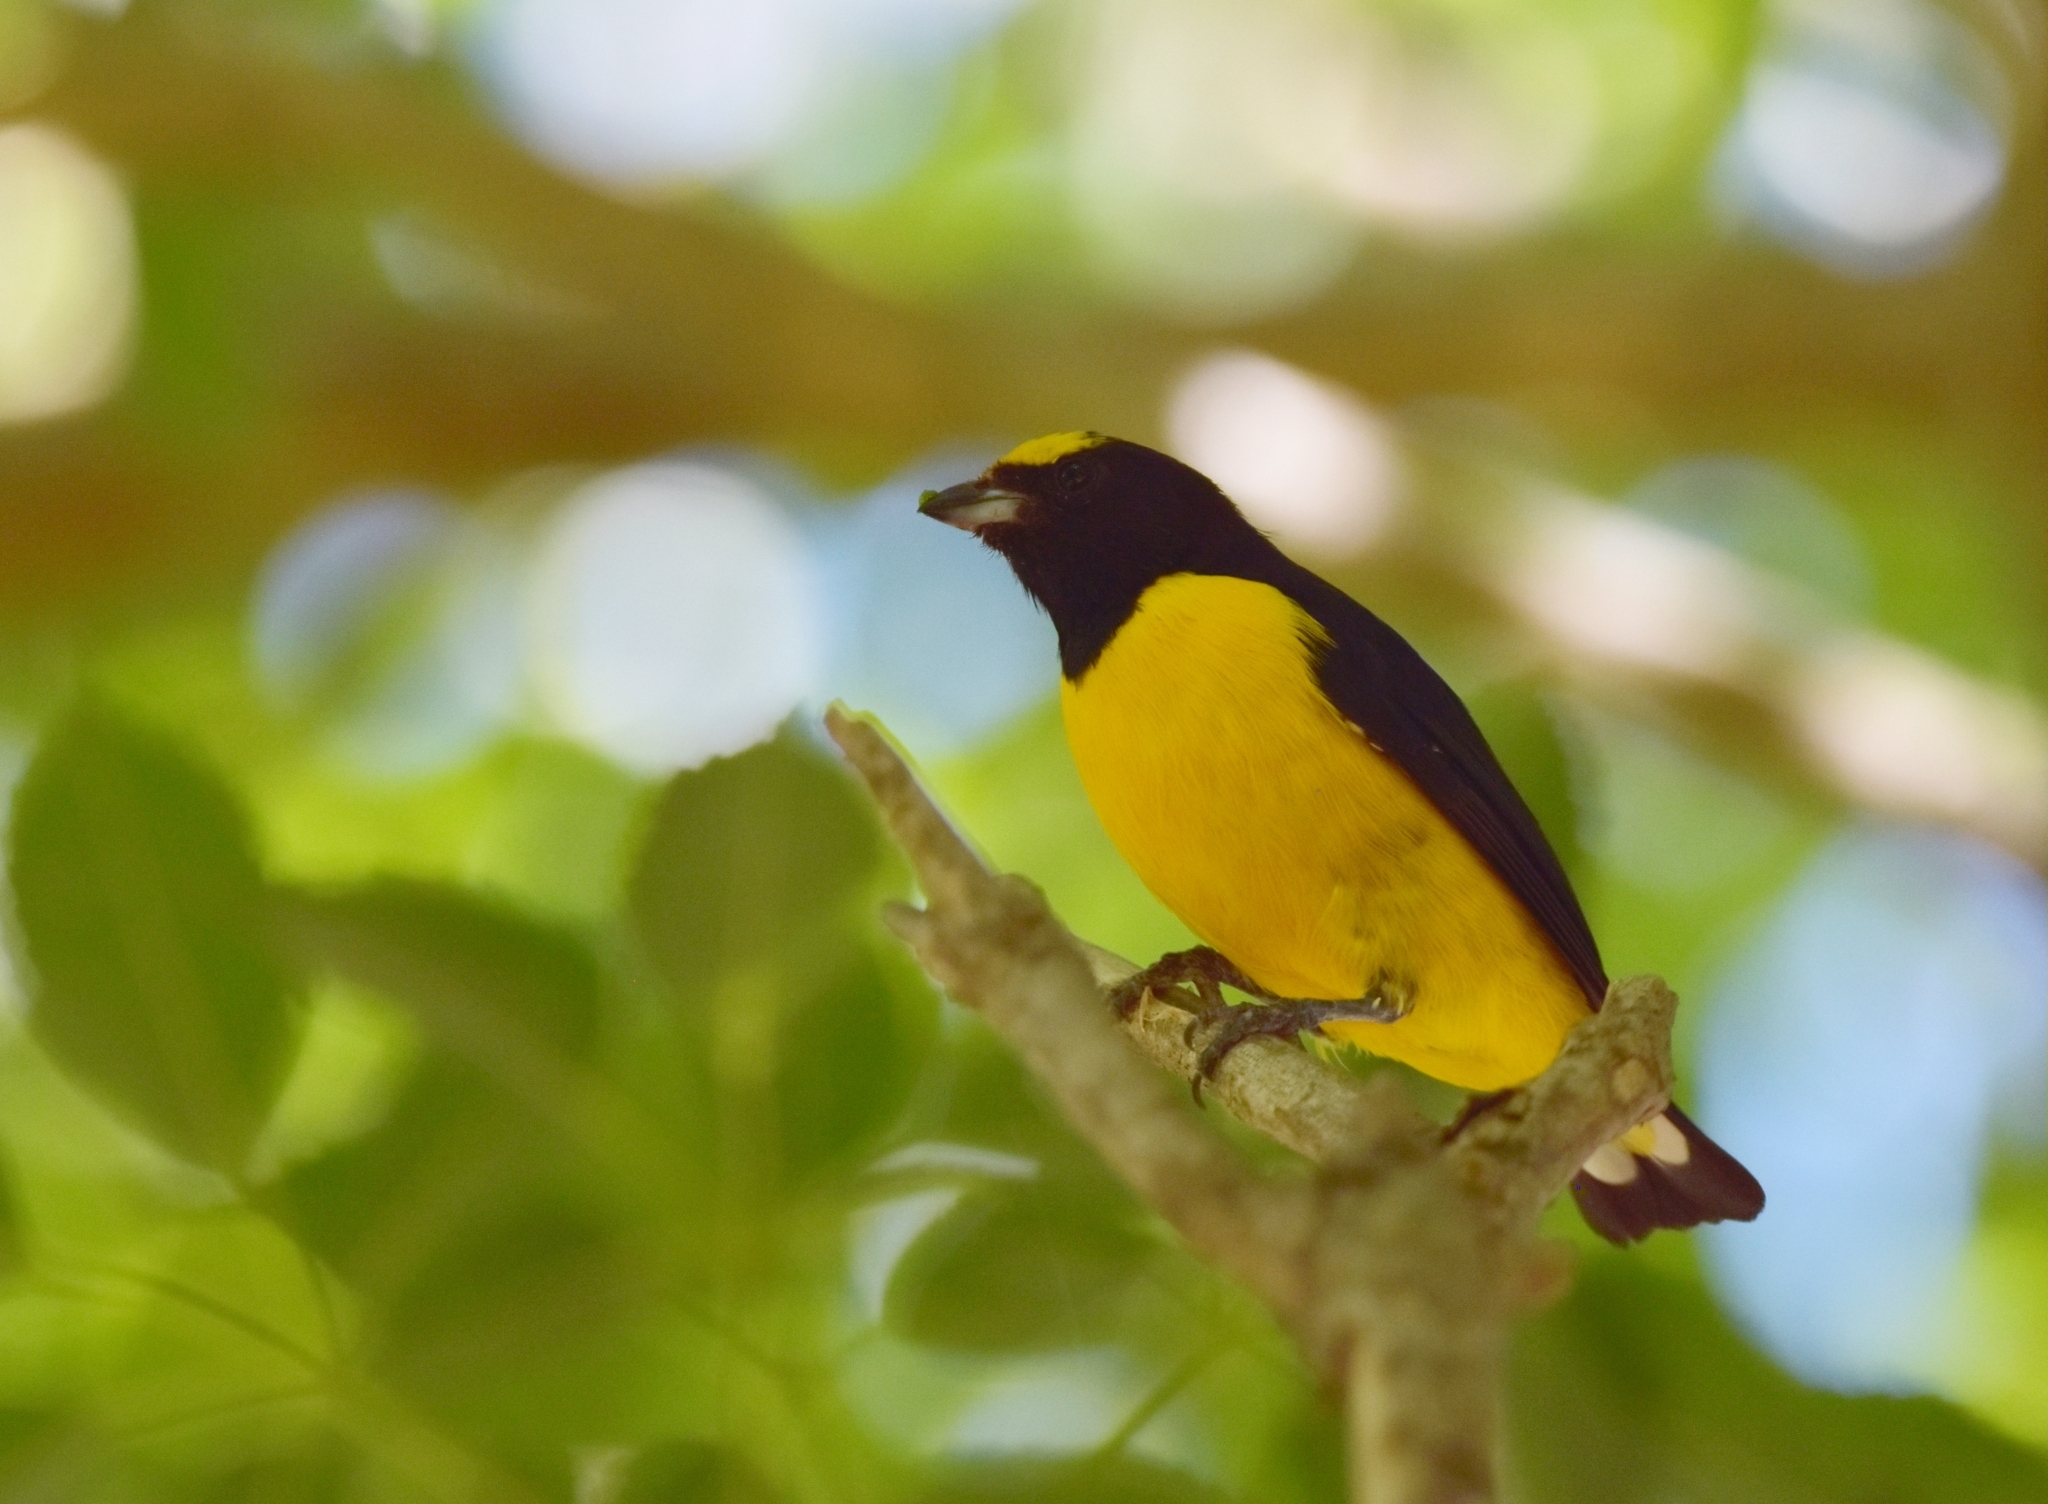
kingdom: Animalia
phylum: Chordata
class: Aves
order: Passeriformes
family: Fringillidae
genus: Euphonia
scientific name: Euphonia chlorotica
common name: Purple-throated euphonia
